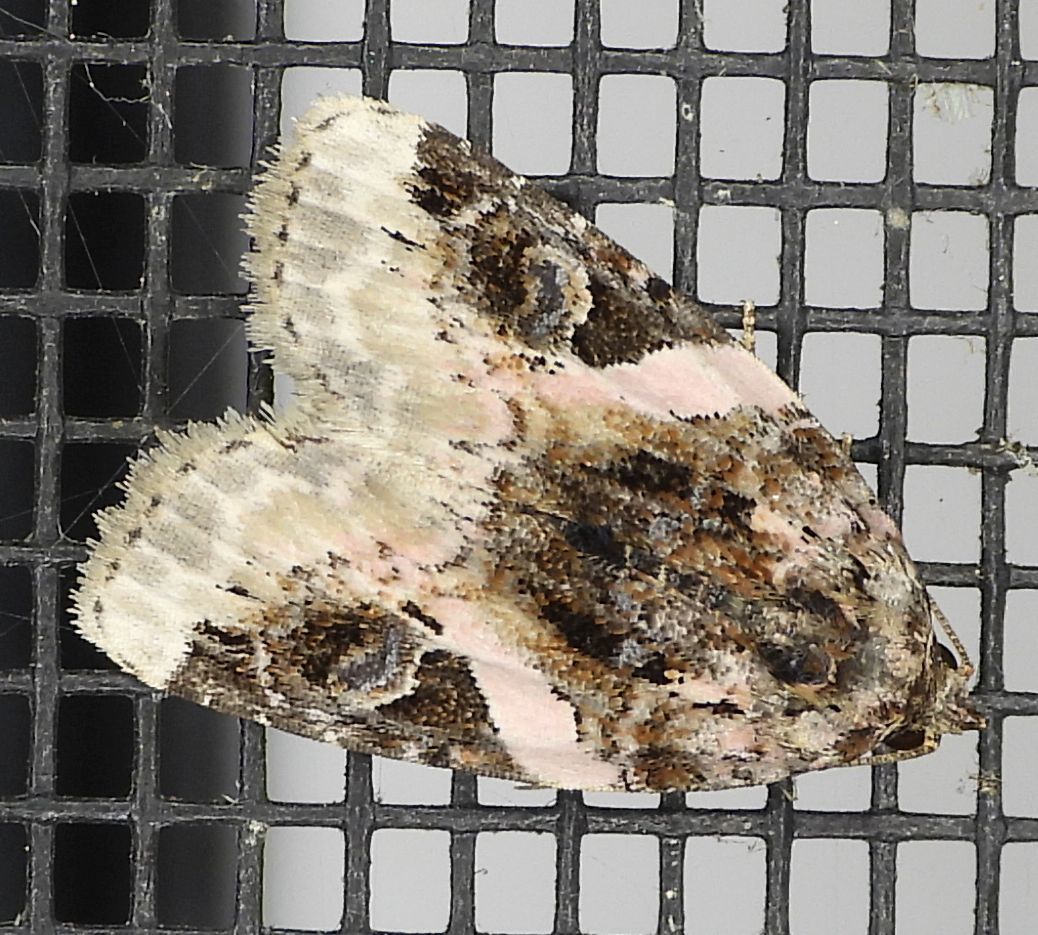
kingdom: Animalia
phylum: Arthropoda
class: Insecta
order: Lepidoptera
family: Noctuidae
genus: Pseudeustrotia
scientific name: Pseudeustrotia carneola
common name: Pink-barred lithacodia moth
